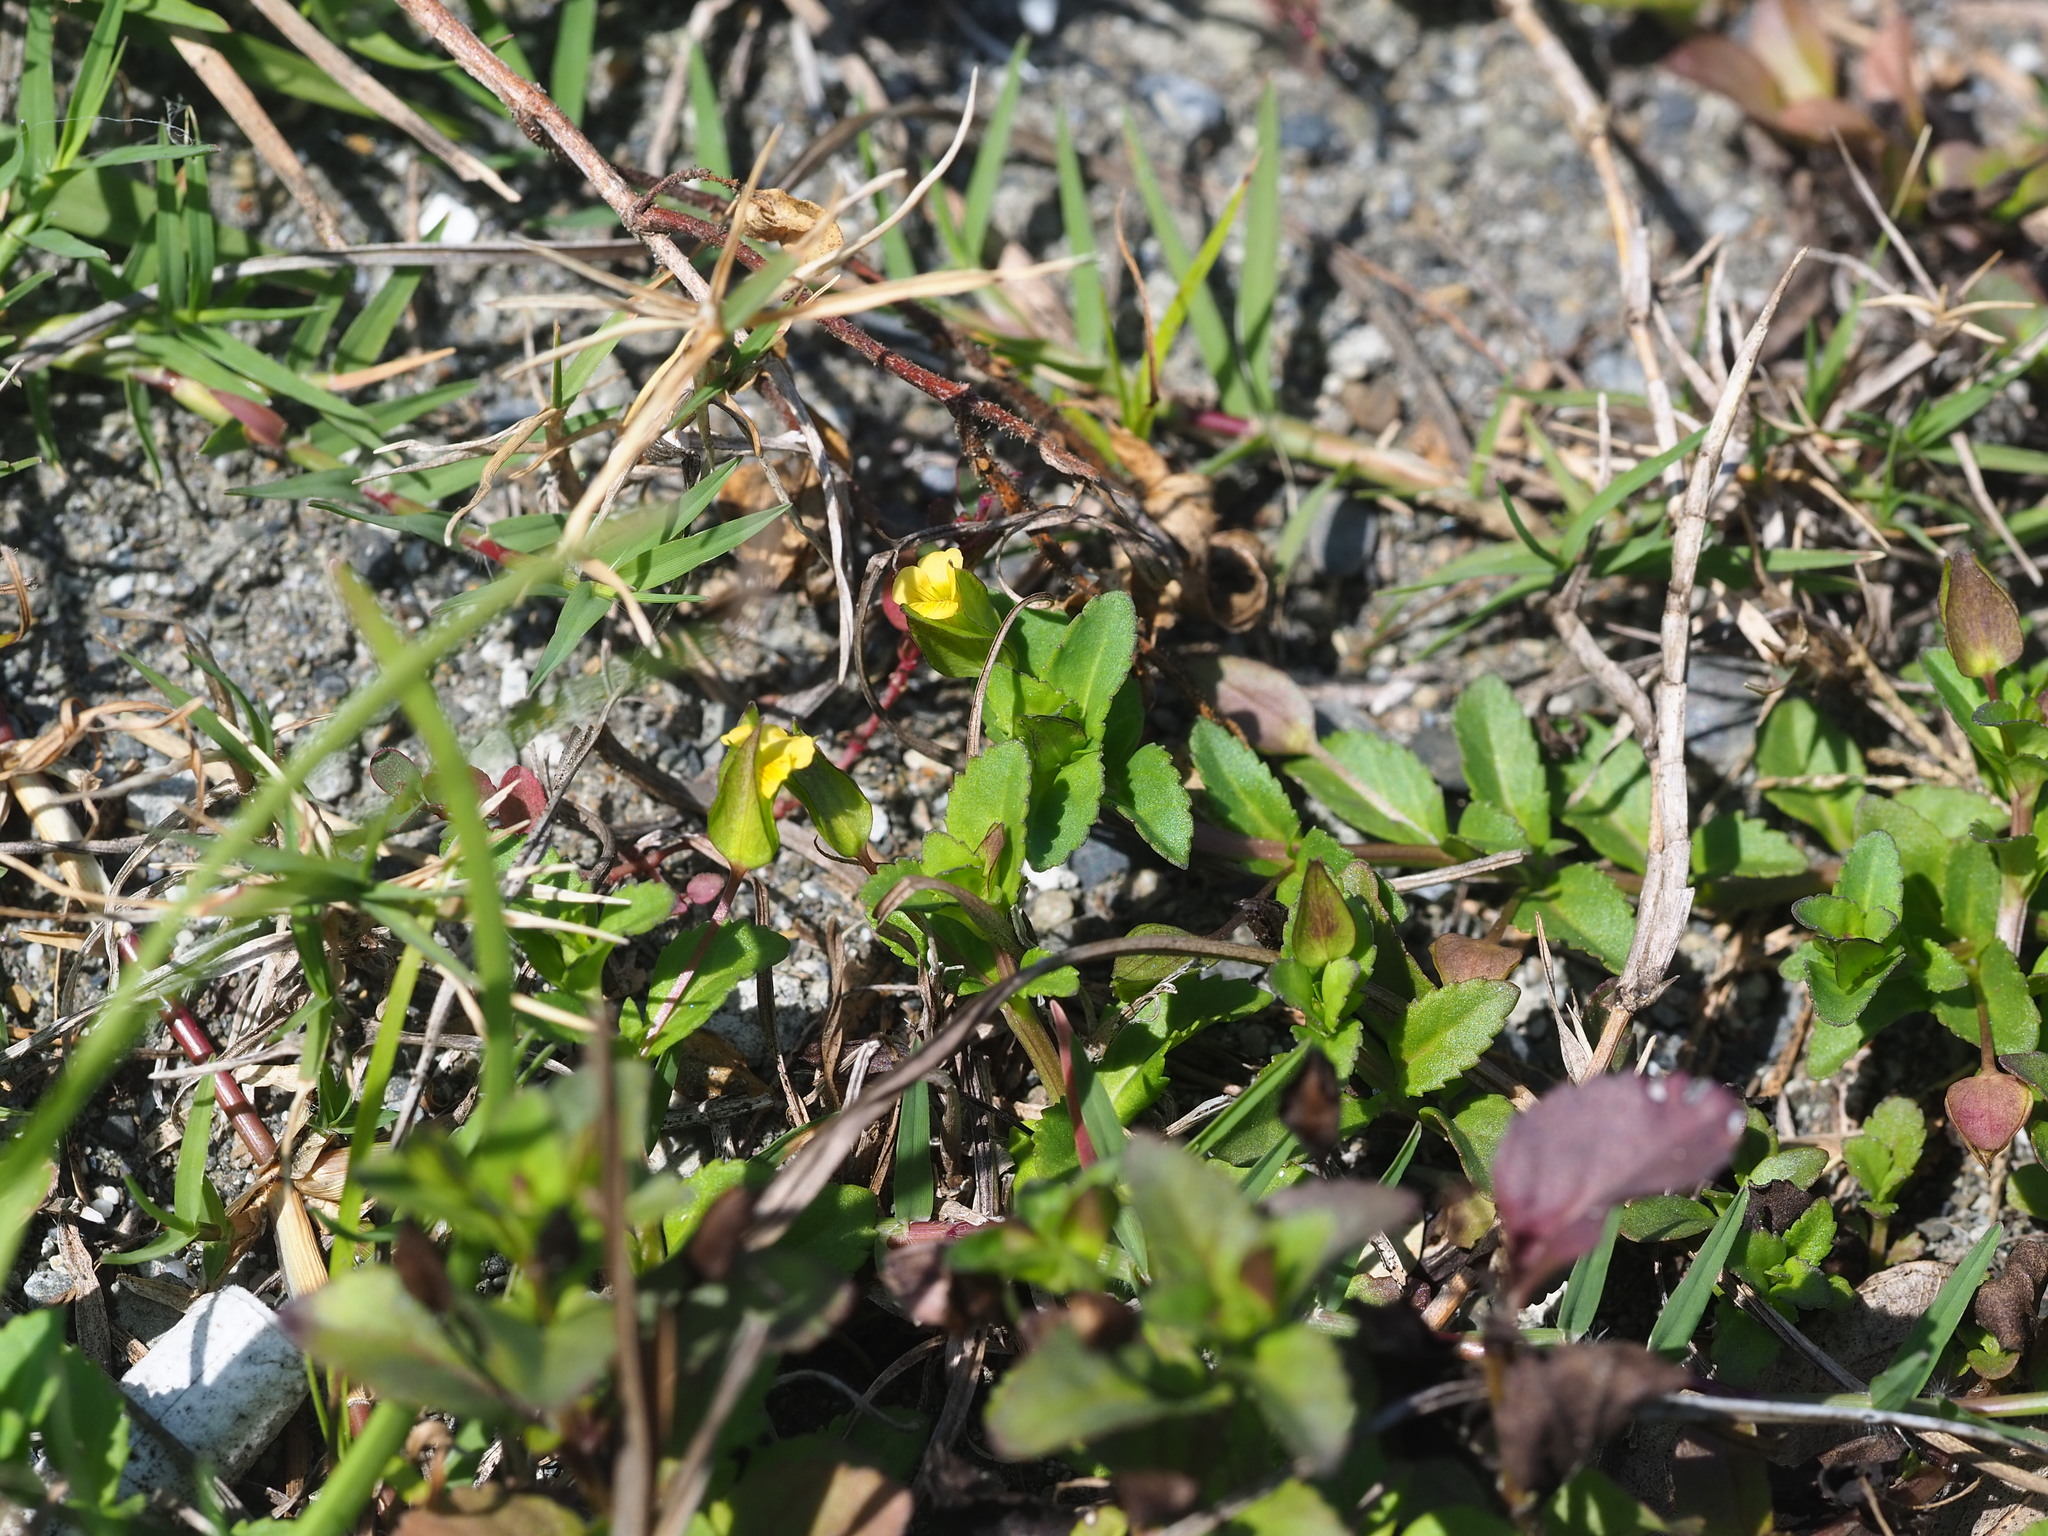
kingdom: Plantae
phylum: Tracheophyta
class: Magnoliopsida
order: Lamiales
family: Plantaginaceae
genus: Mecardonia
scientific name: Mecardonia procumbens
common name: Baby jump-up
